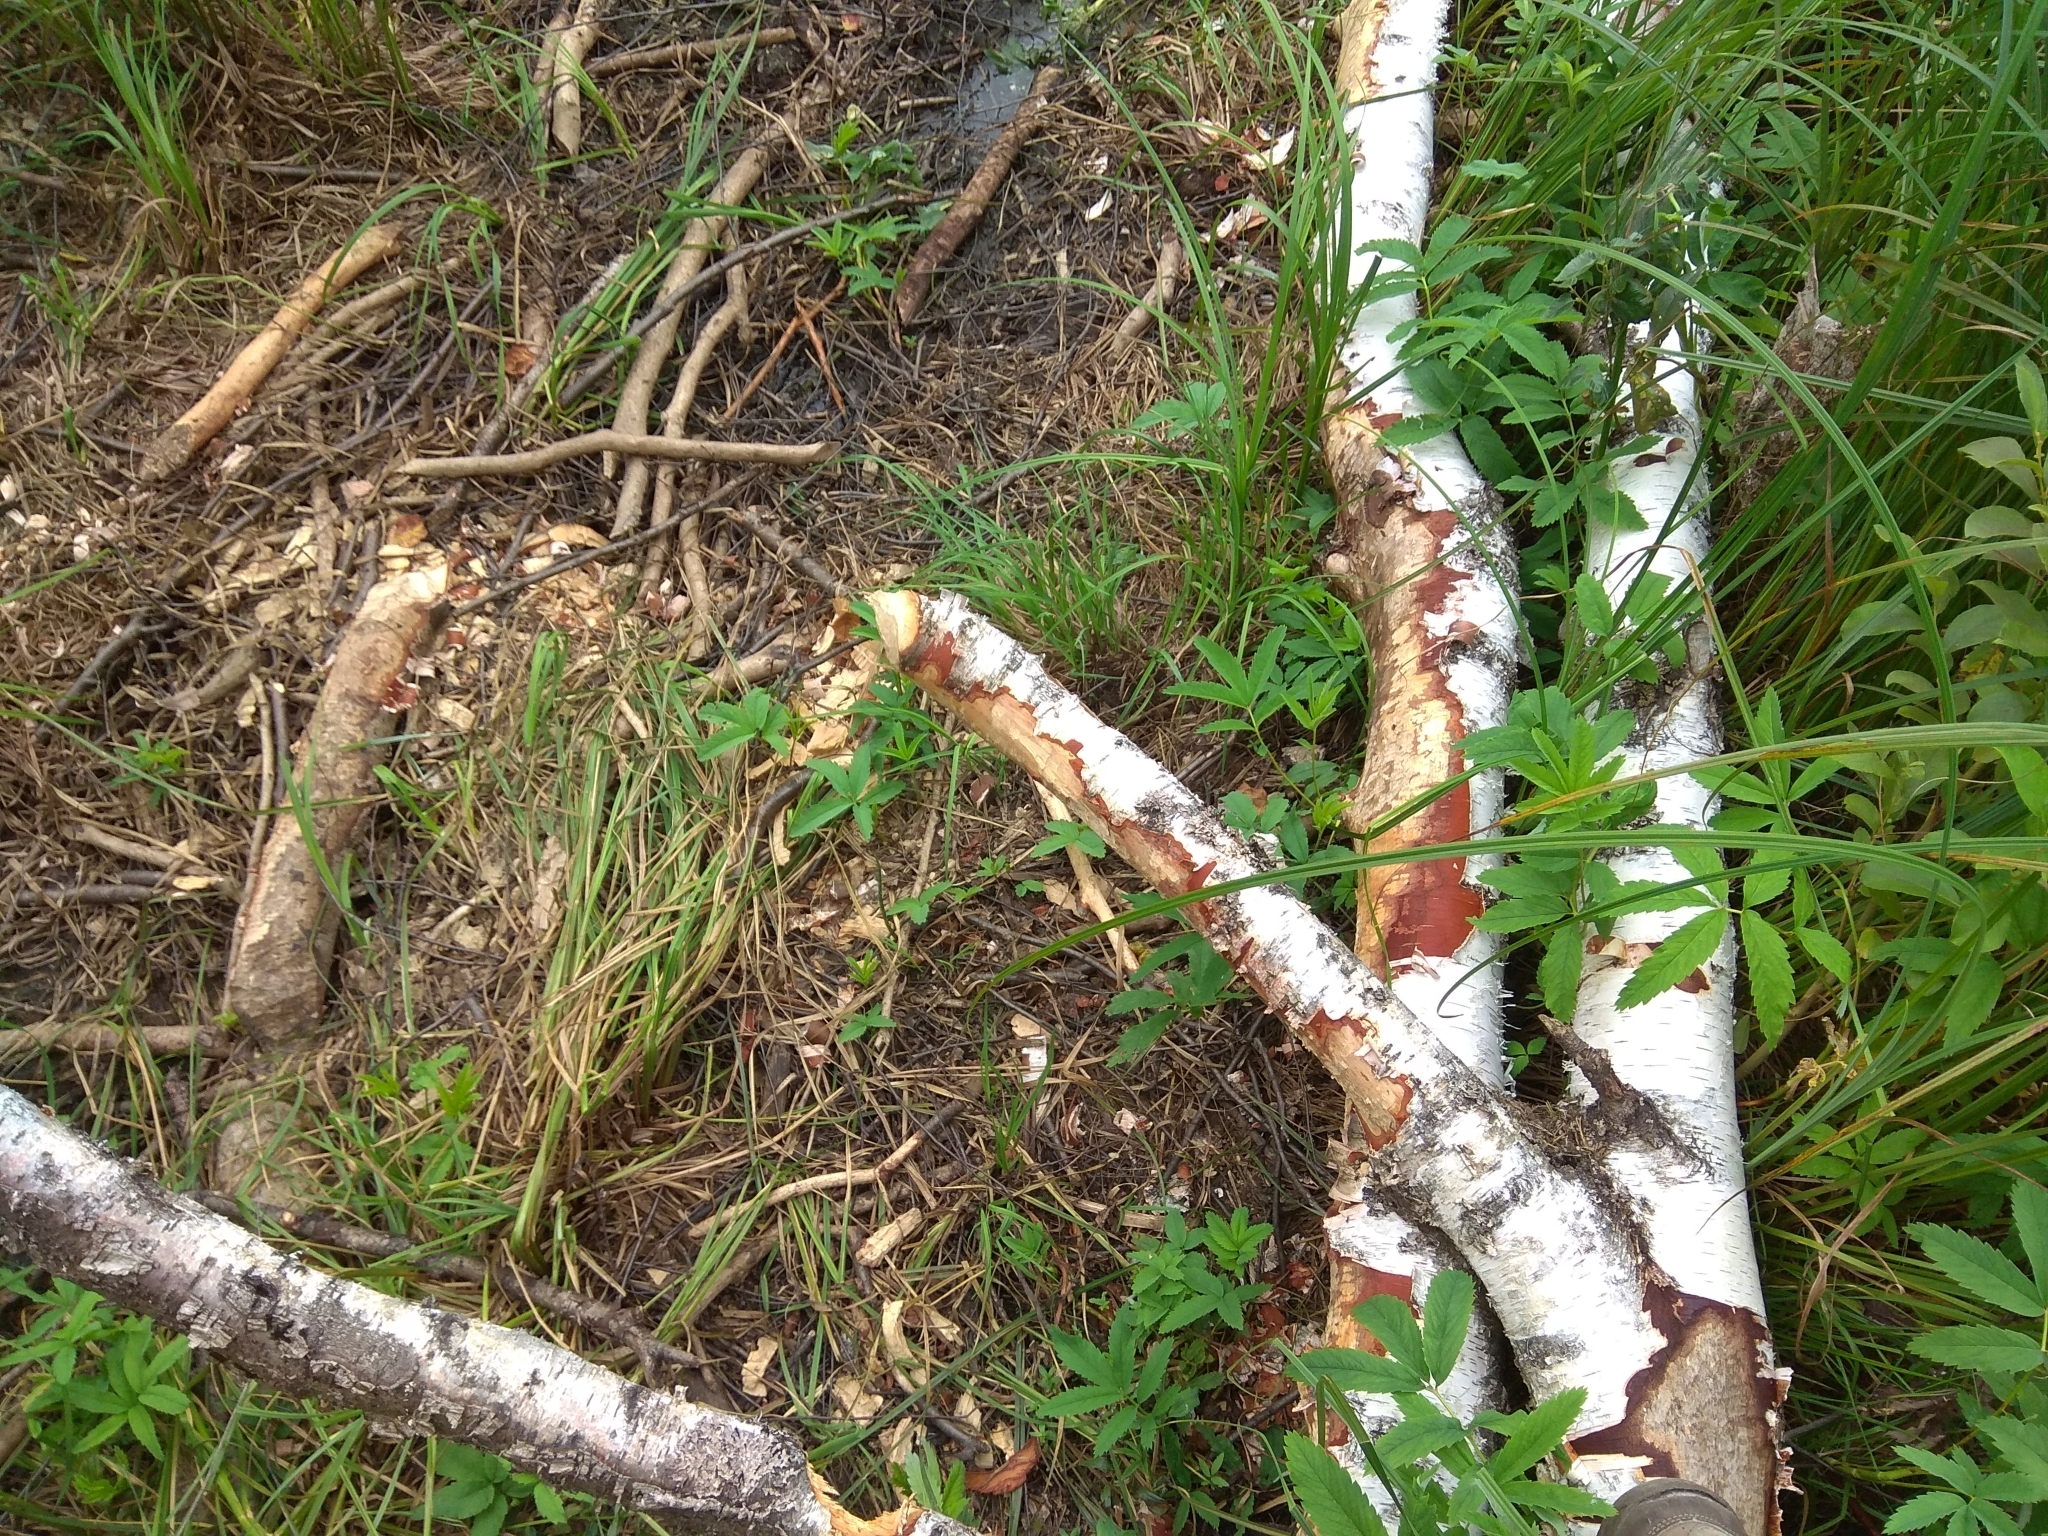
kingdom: Animalia
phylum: Chordata
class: Mammalia
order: Rodentia
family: Castoridae
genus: Castor
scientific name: Castor fiber
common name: Eurasian beaver
